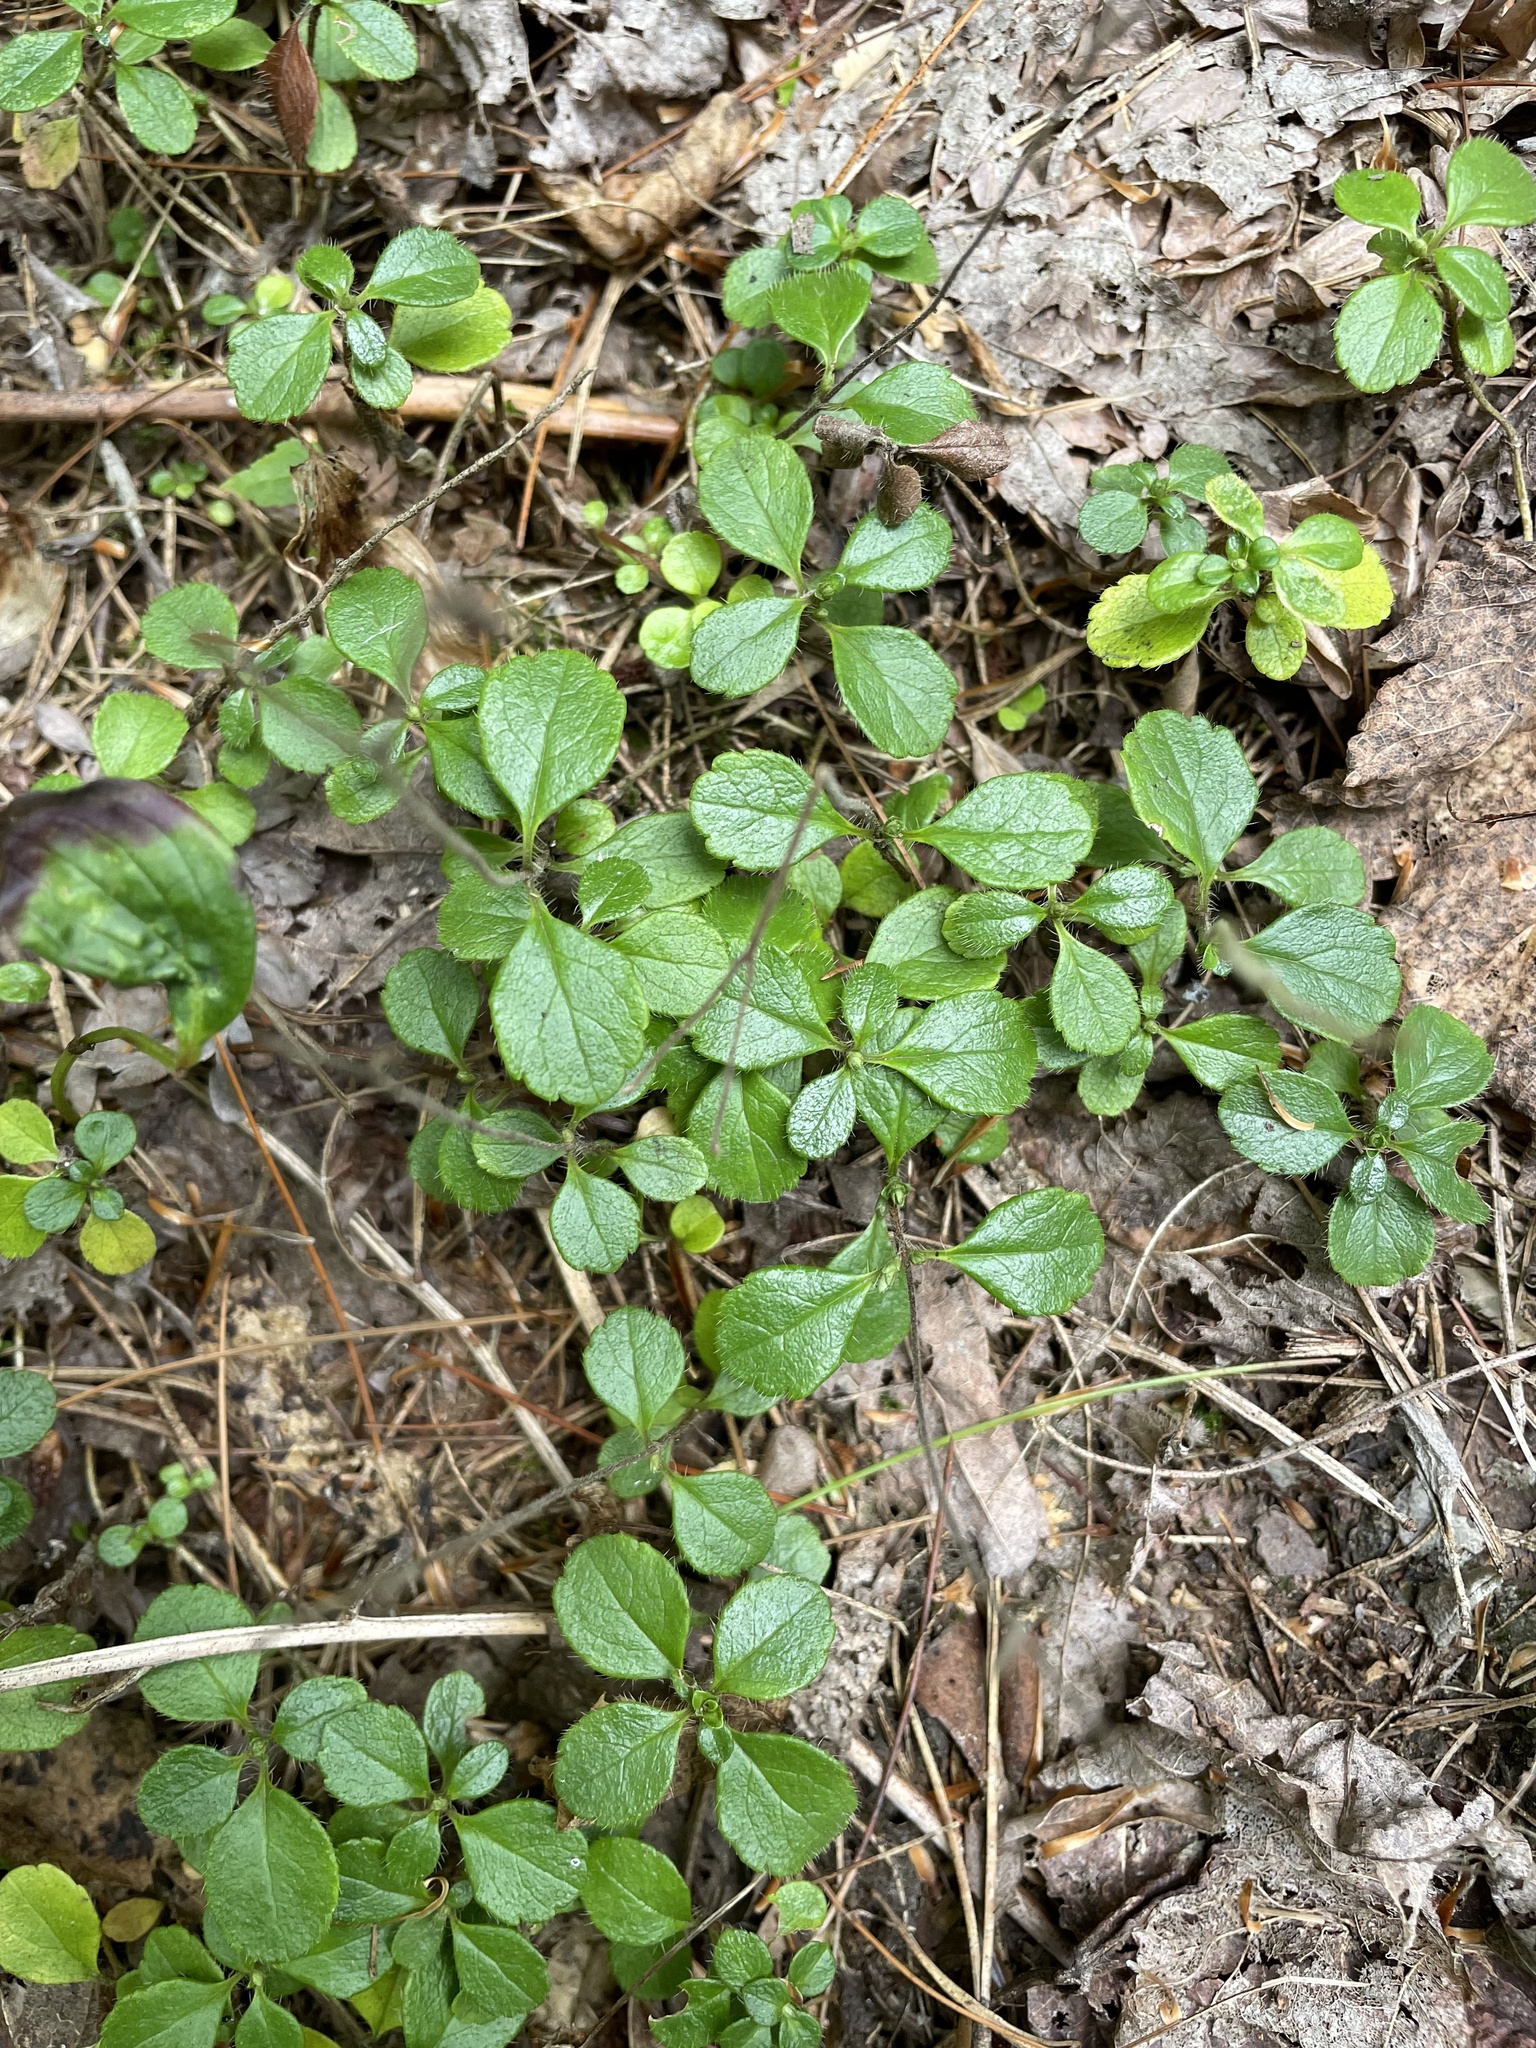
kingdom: Plantae
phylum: Tracheophyta
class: Magnoliopsida
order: Dipsacales
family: Caprifoliaceae
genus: Linnaea
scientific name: Linnaea borealis
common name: Twinflower
